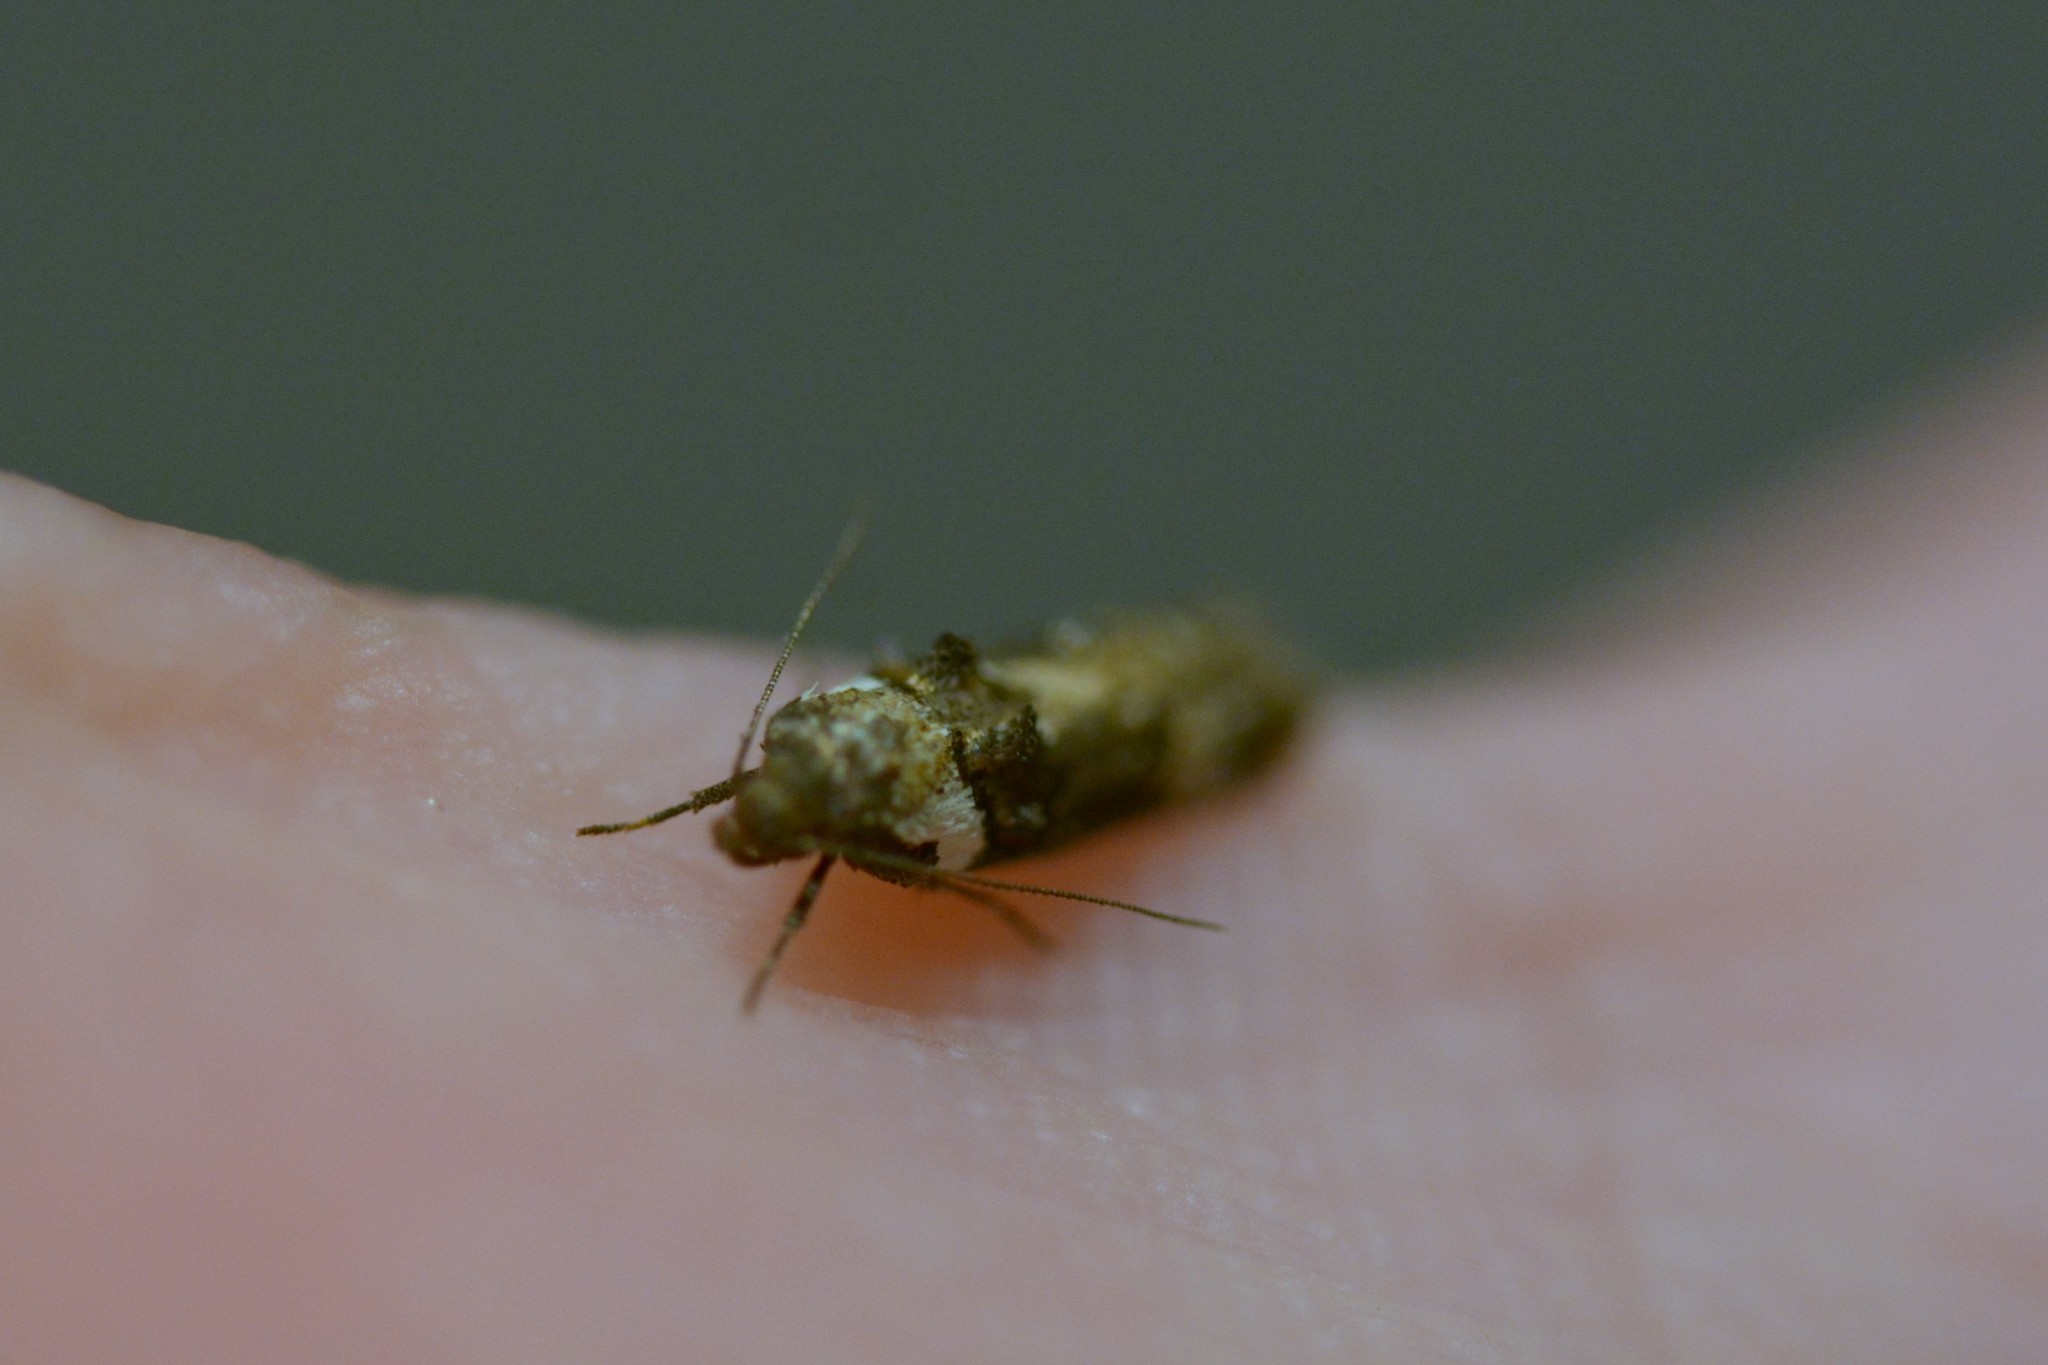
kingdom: Animalia
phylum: Arthropoda
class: Insecta
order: Lepidoptera
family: Oecophoridae
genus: Trachypepla
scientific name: Trachypepla conspicuella
